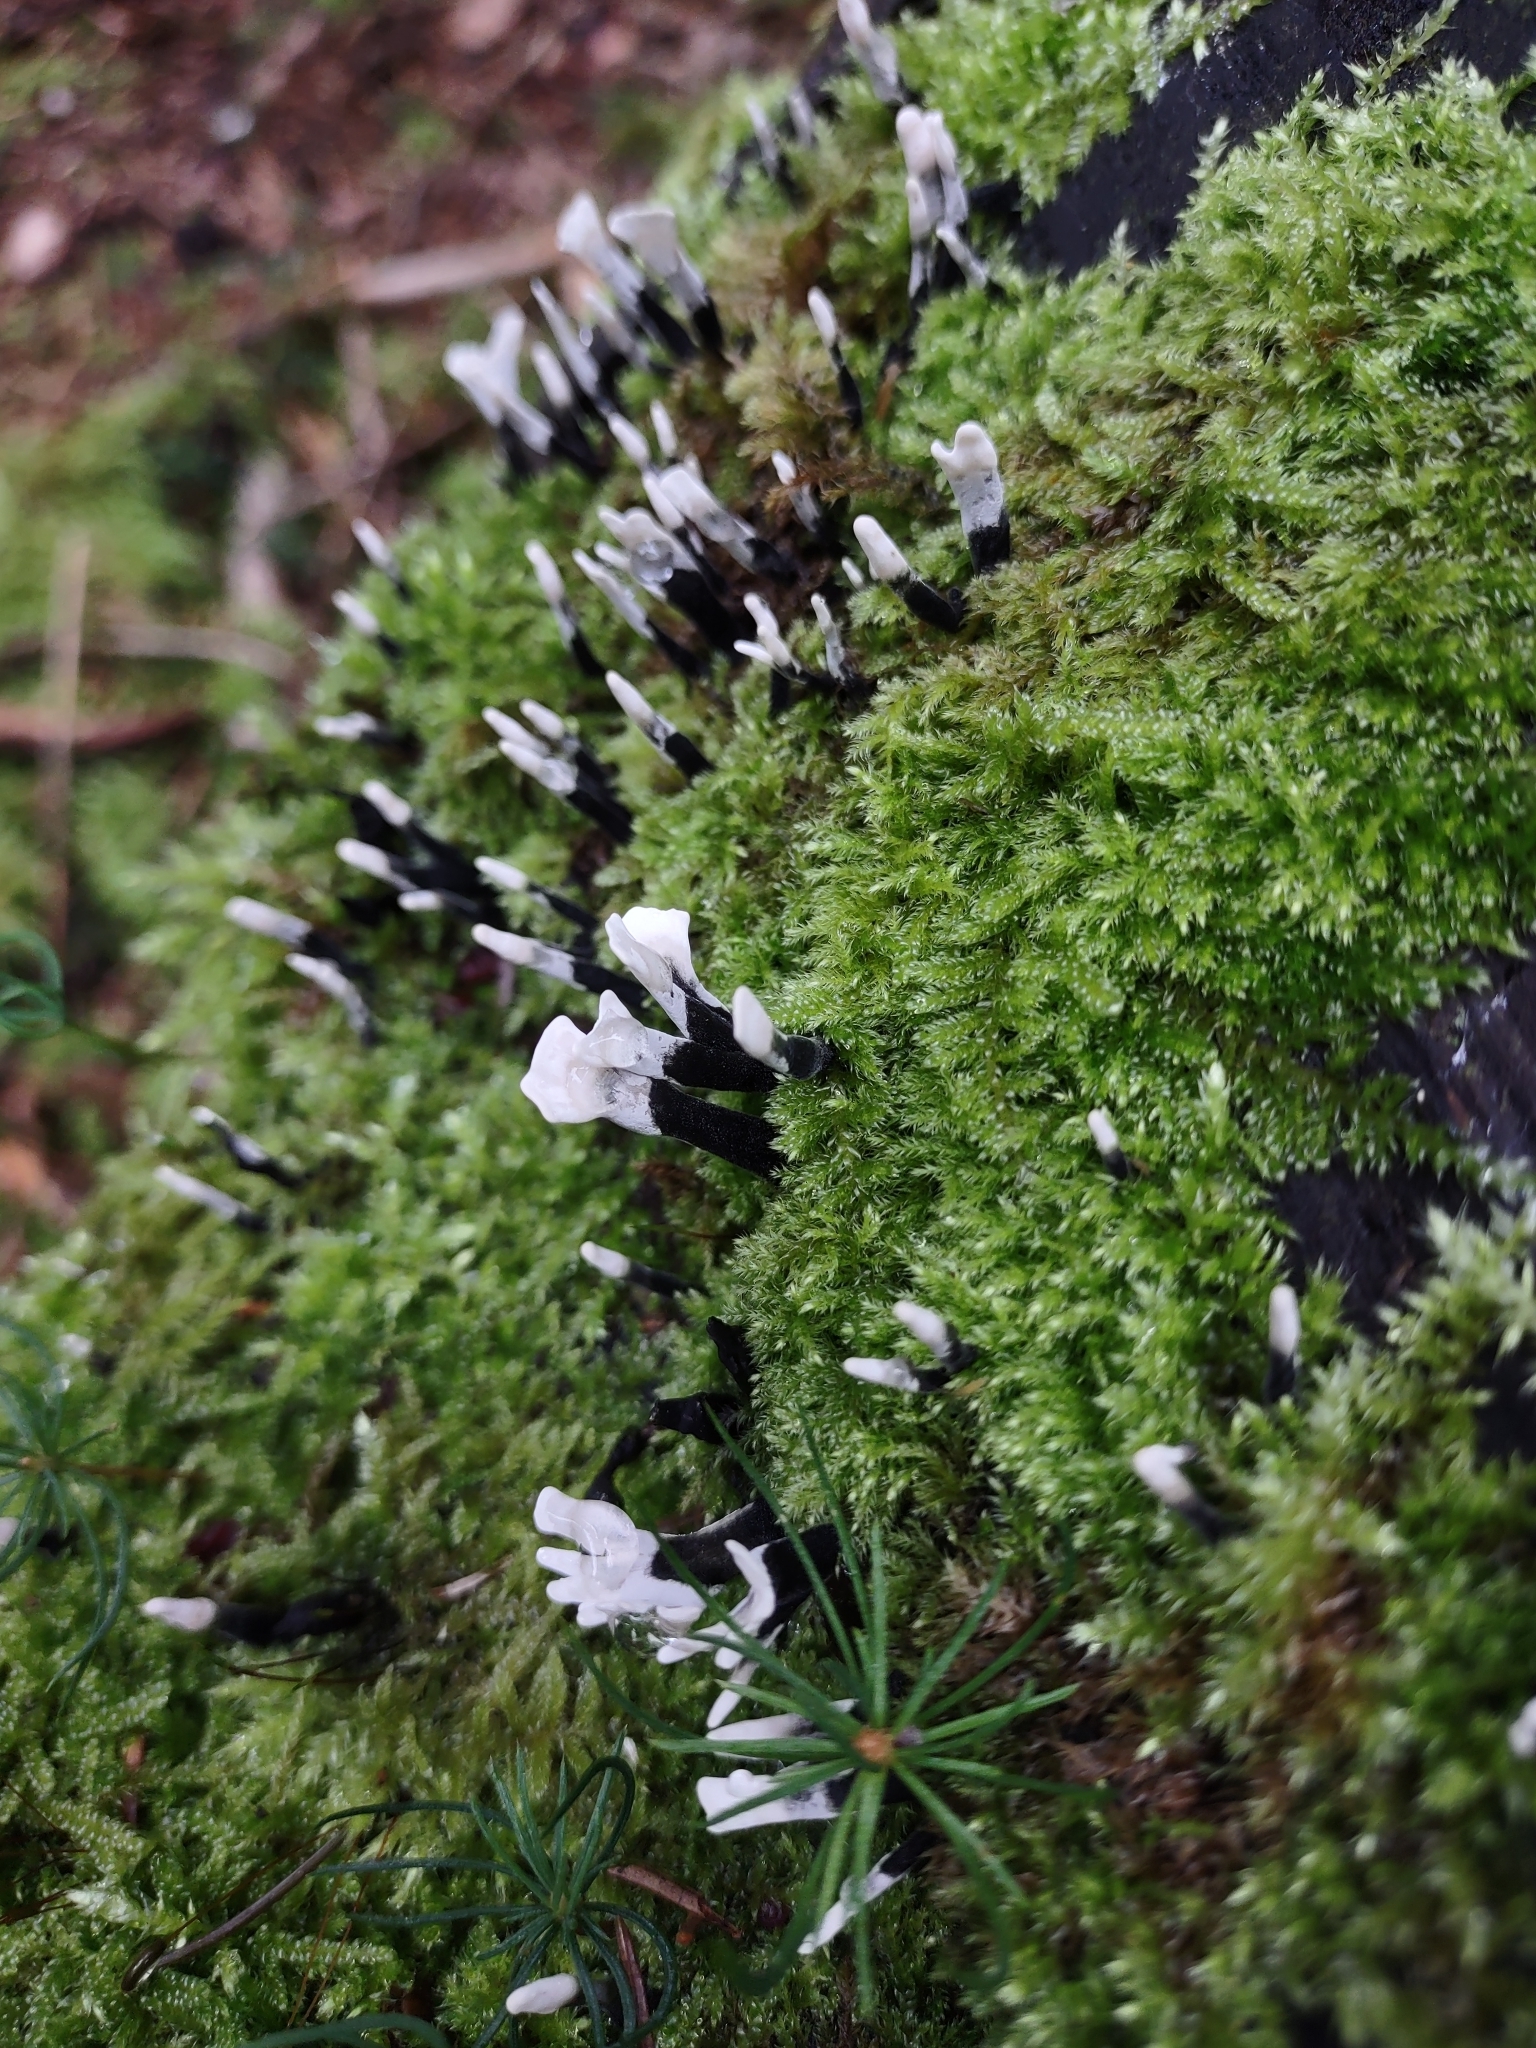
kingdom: Fungi
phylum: Ascomycota
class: Sordariomycetes
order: Xylariales
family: Xylariaceae
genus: Xylaria
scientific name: Xylaria hypoxylon
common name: Candle-snuff fungus
